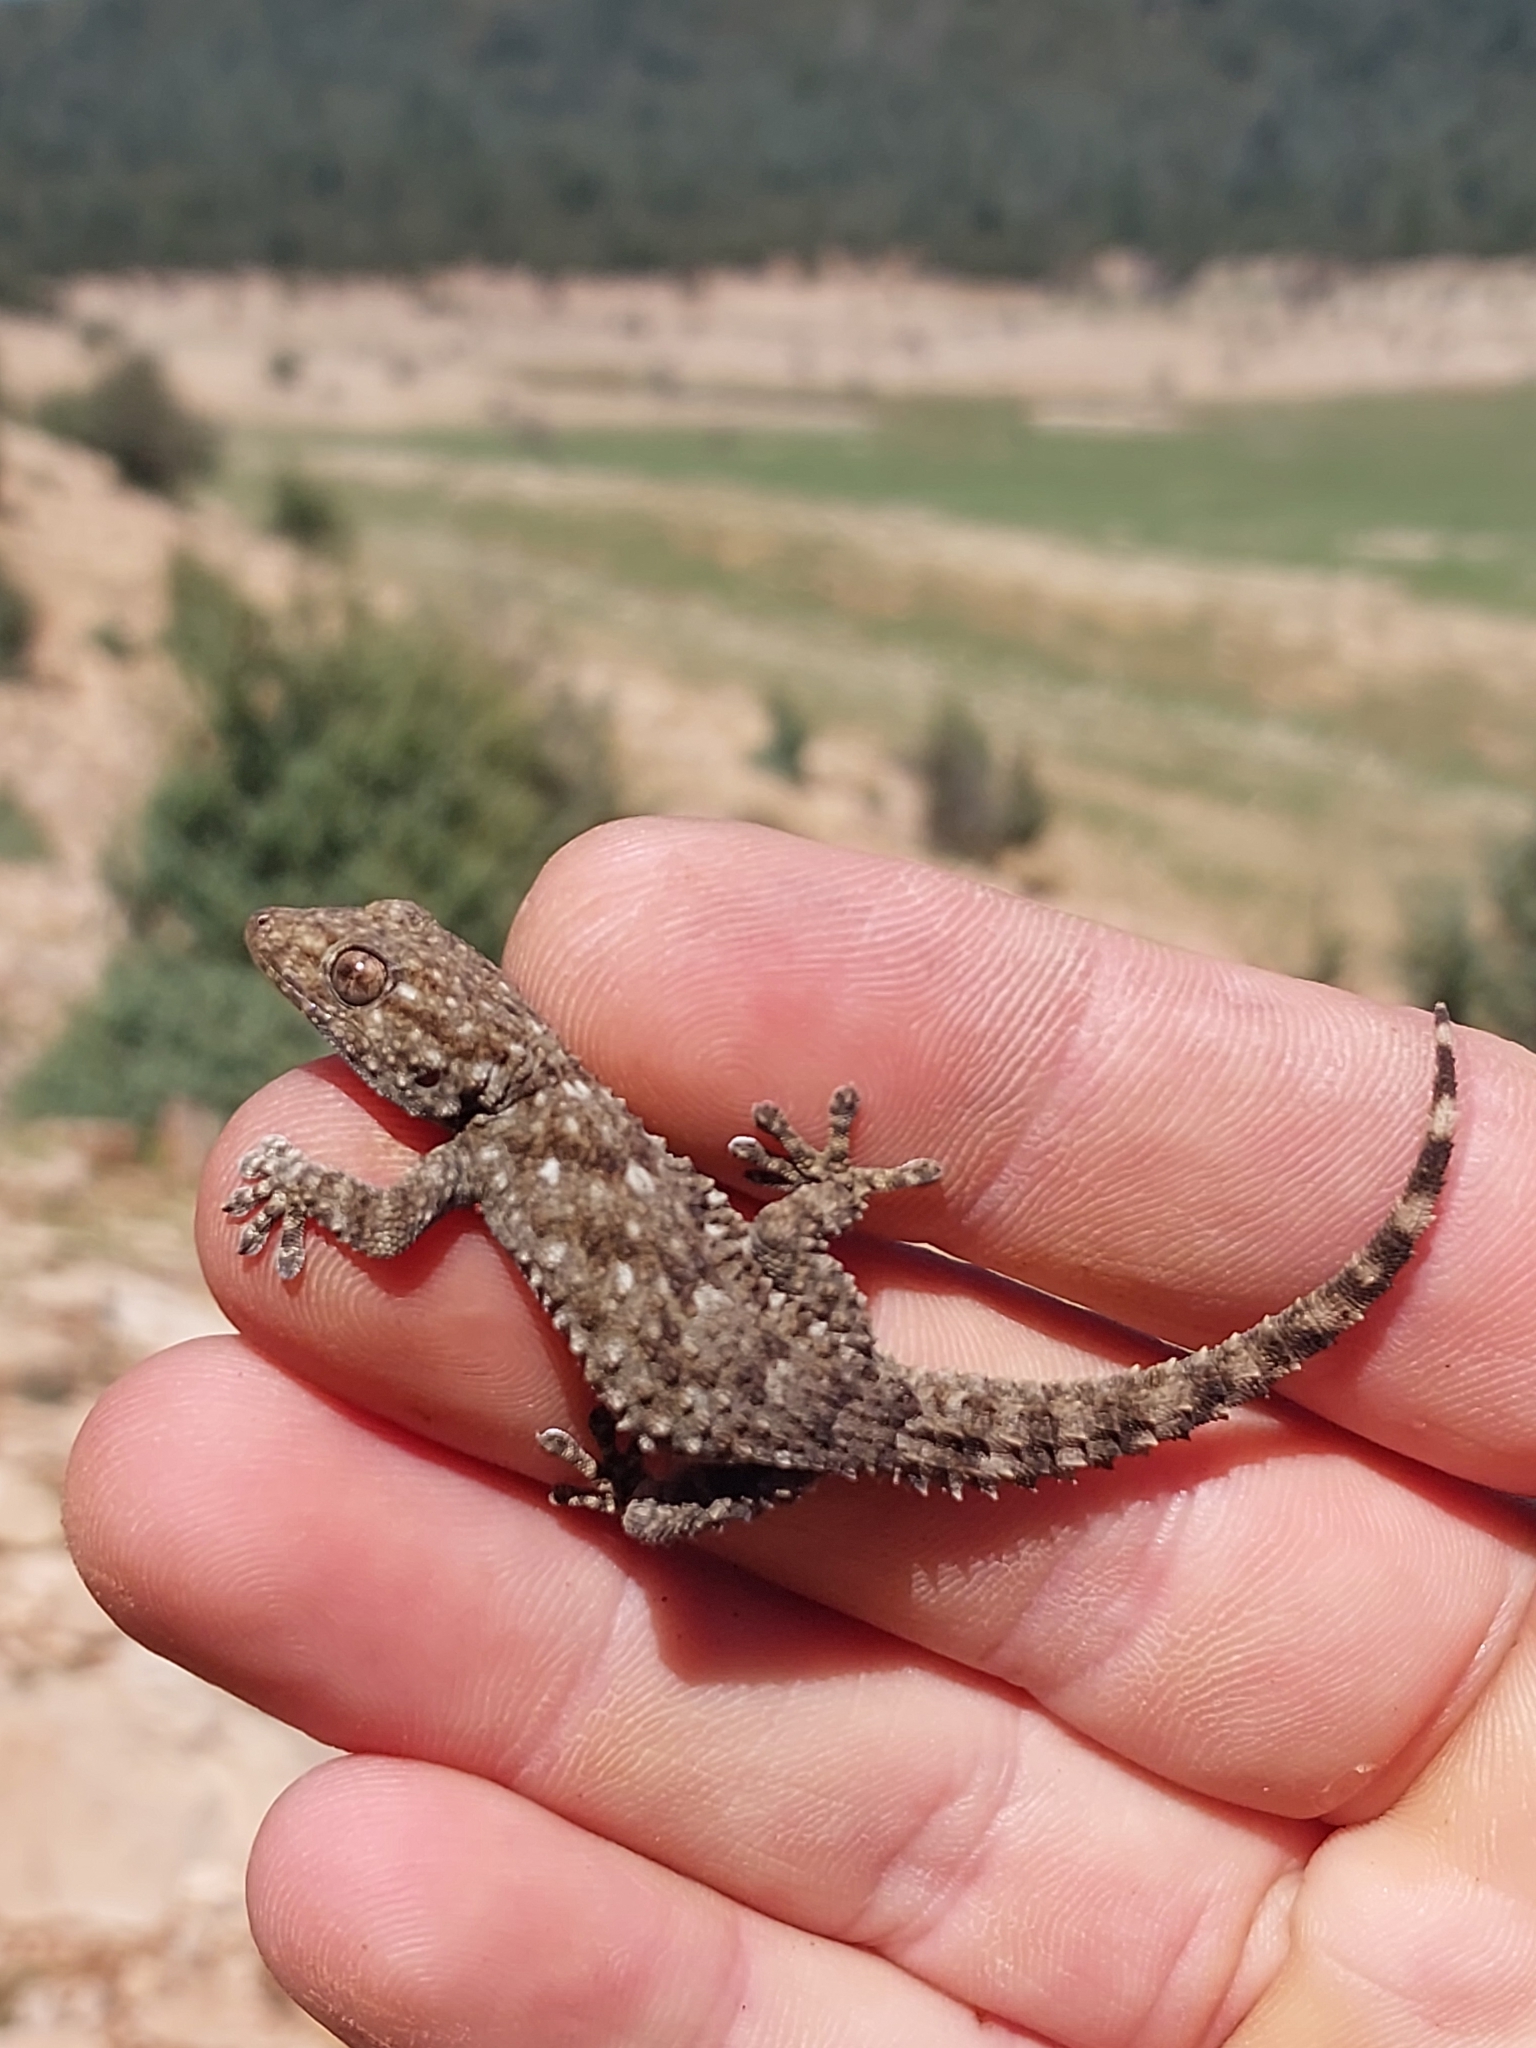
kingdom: Animalia
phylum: Chordata
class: Squamata
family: Phyllodactylidae
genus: Tarentola
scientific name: Tarentola mauritanica
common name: Moorish gecko
